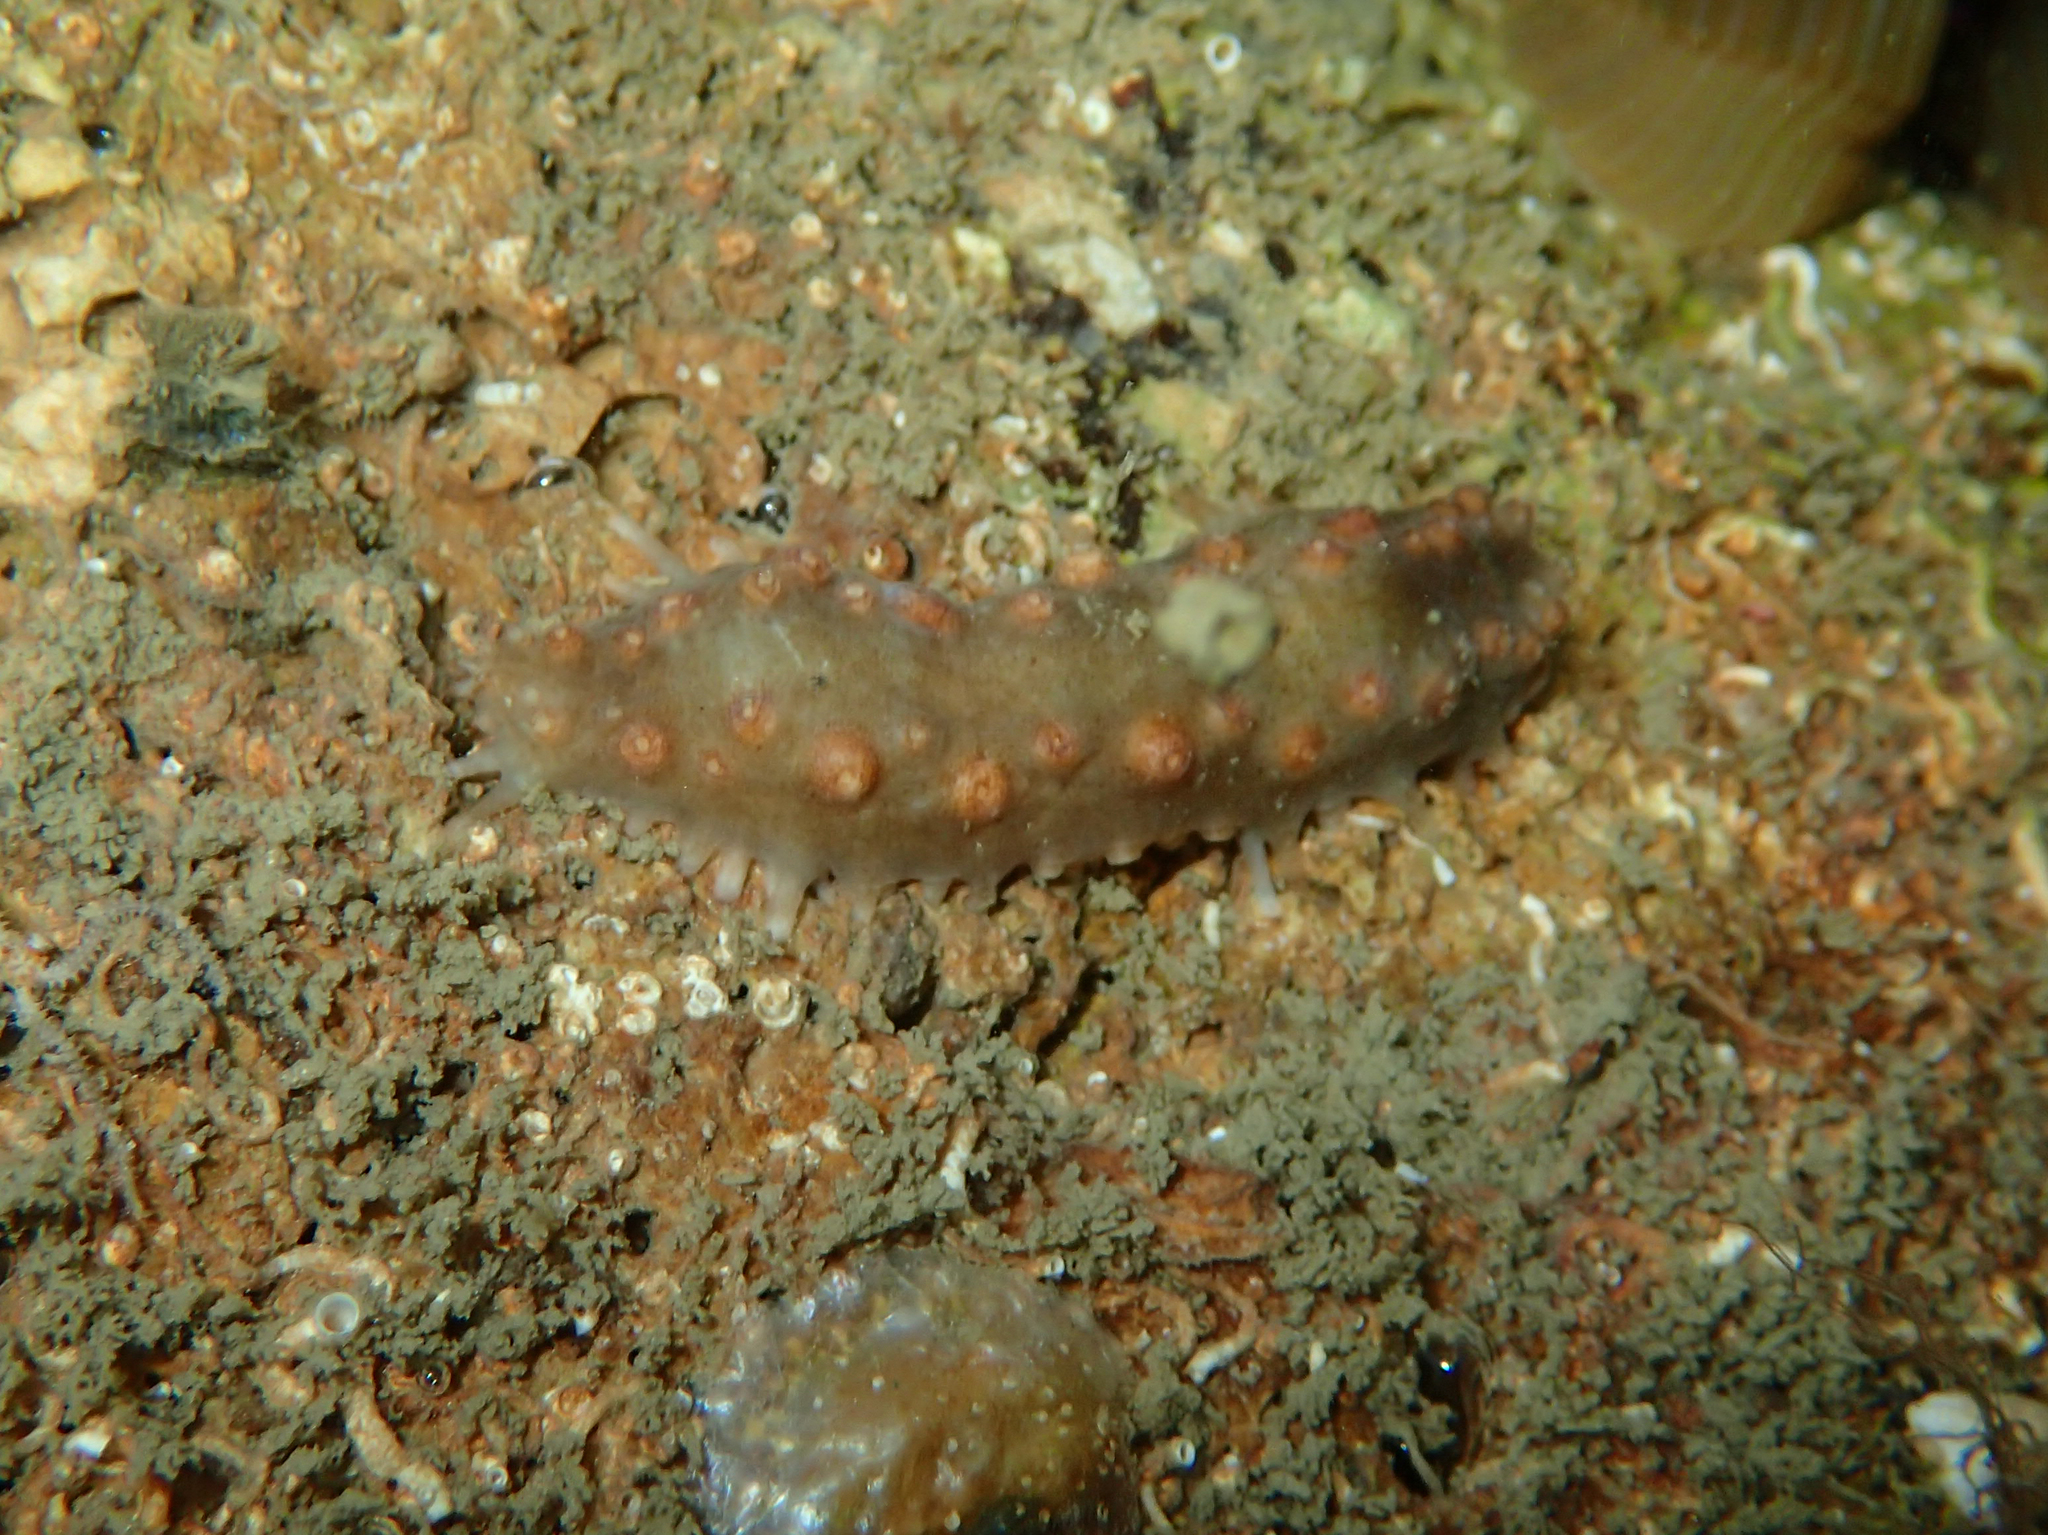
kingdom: Animalia
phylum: Echinodermata
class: Holothuroidea
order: Dendrochirotida
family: Cucumariidae
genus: Ocnus
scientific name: Ocnus planci
